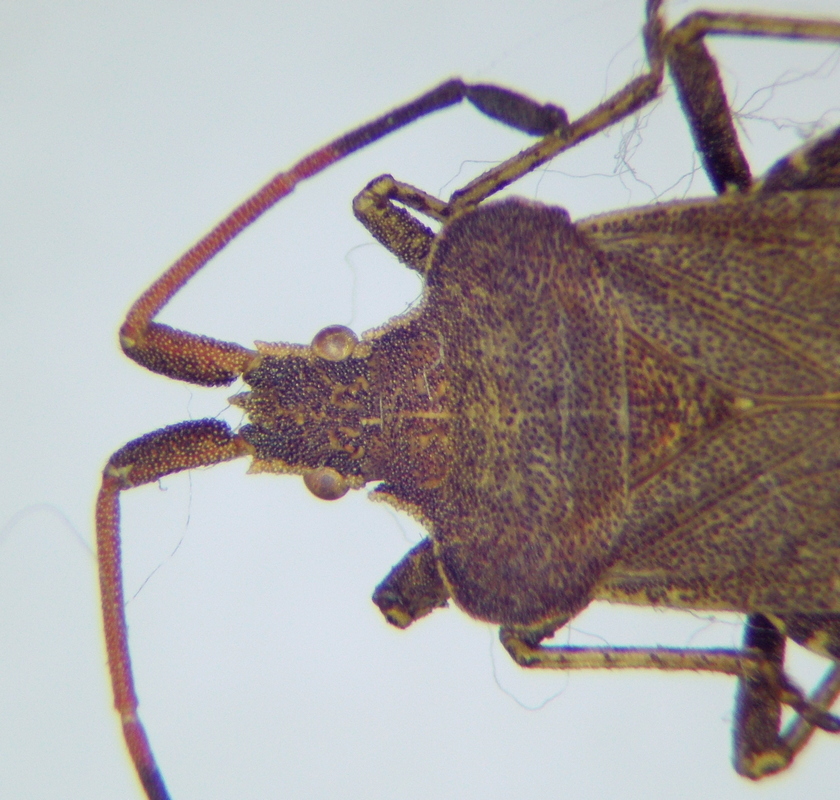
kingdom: Animalia
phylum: Arthropoda
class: Insecta
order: Hemiptera
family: Coreidae
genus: Enoplops
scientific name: Enoplops scapha
